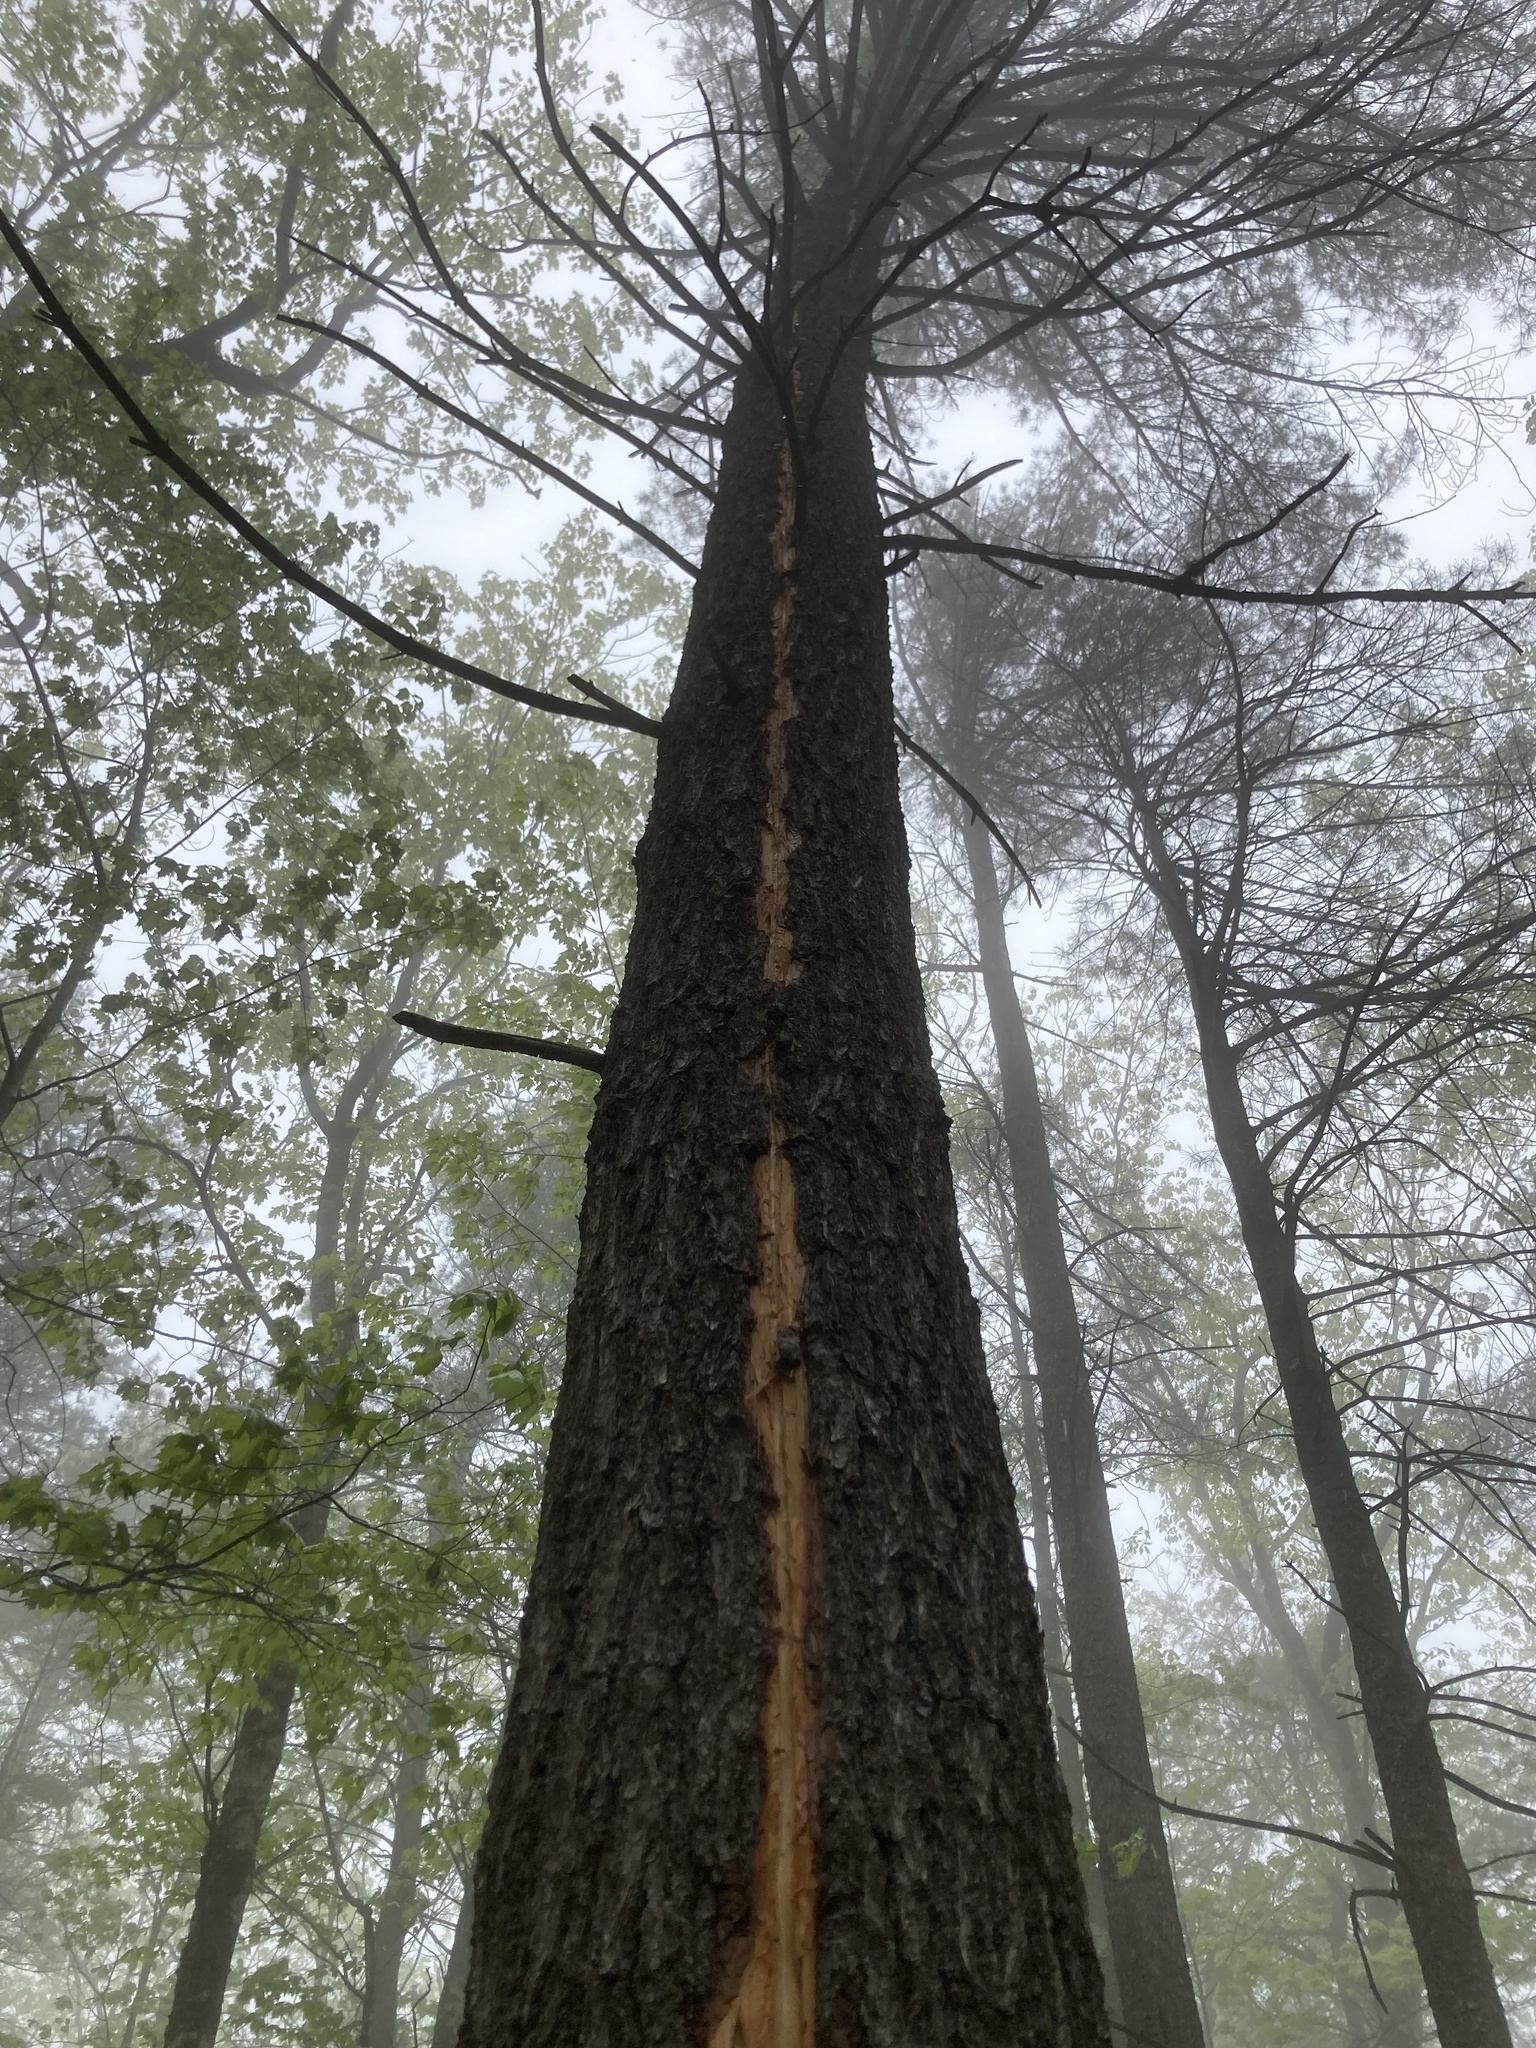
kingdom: Plantae
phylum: Tracheophyta
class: Pinopsida
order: Pinales
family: Pinaceae
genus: Pinus
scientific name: Pinus strobus
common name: Weymouth pine
